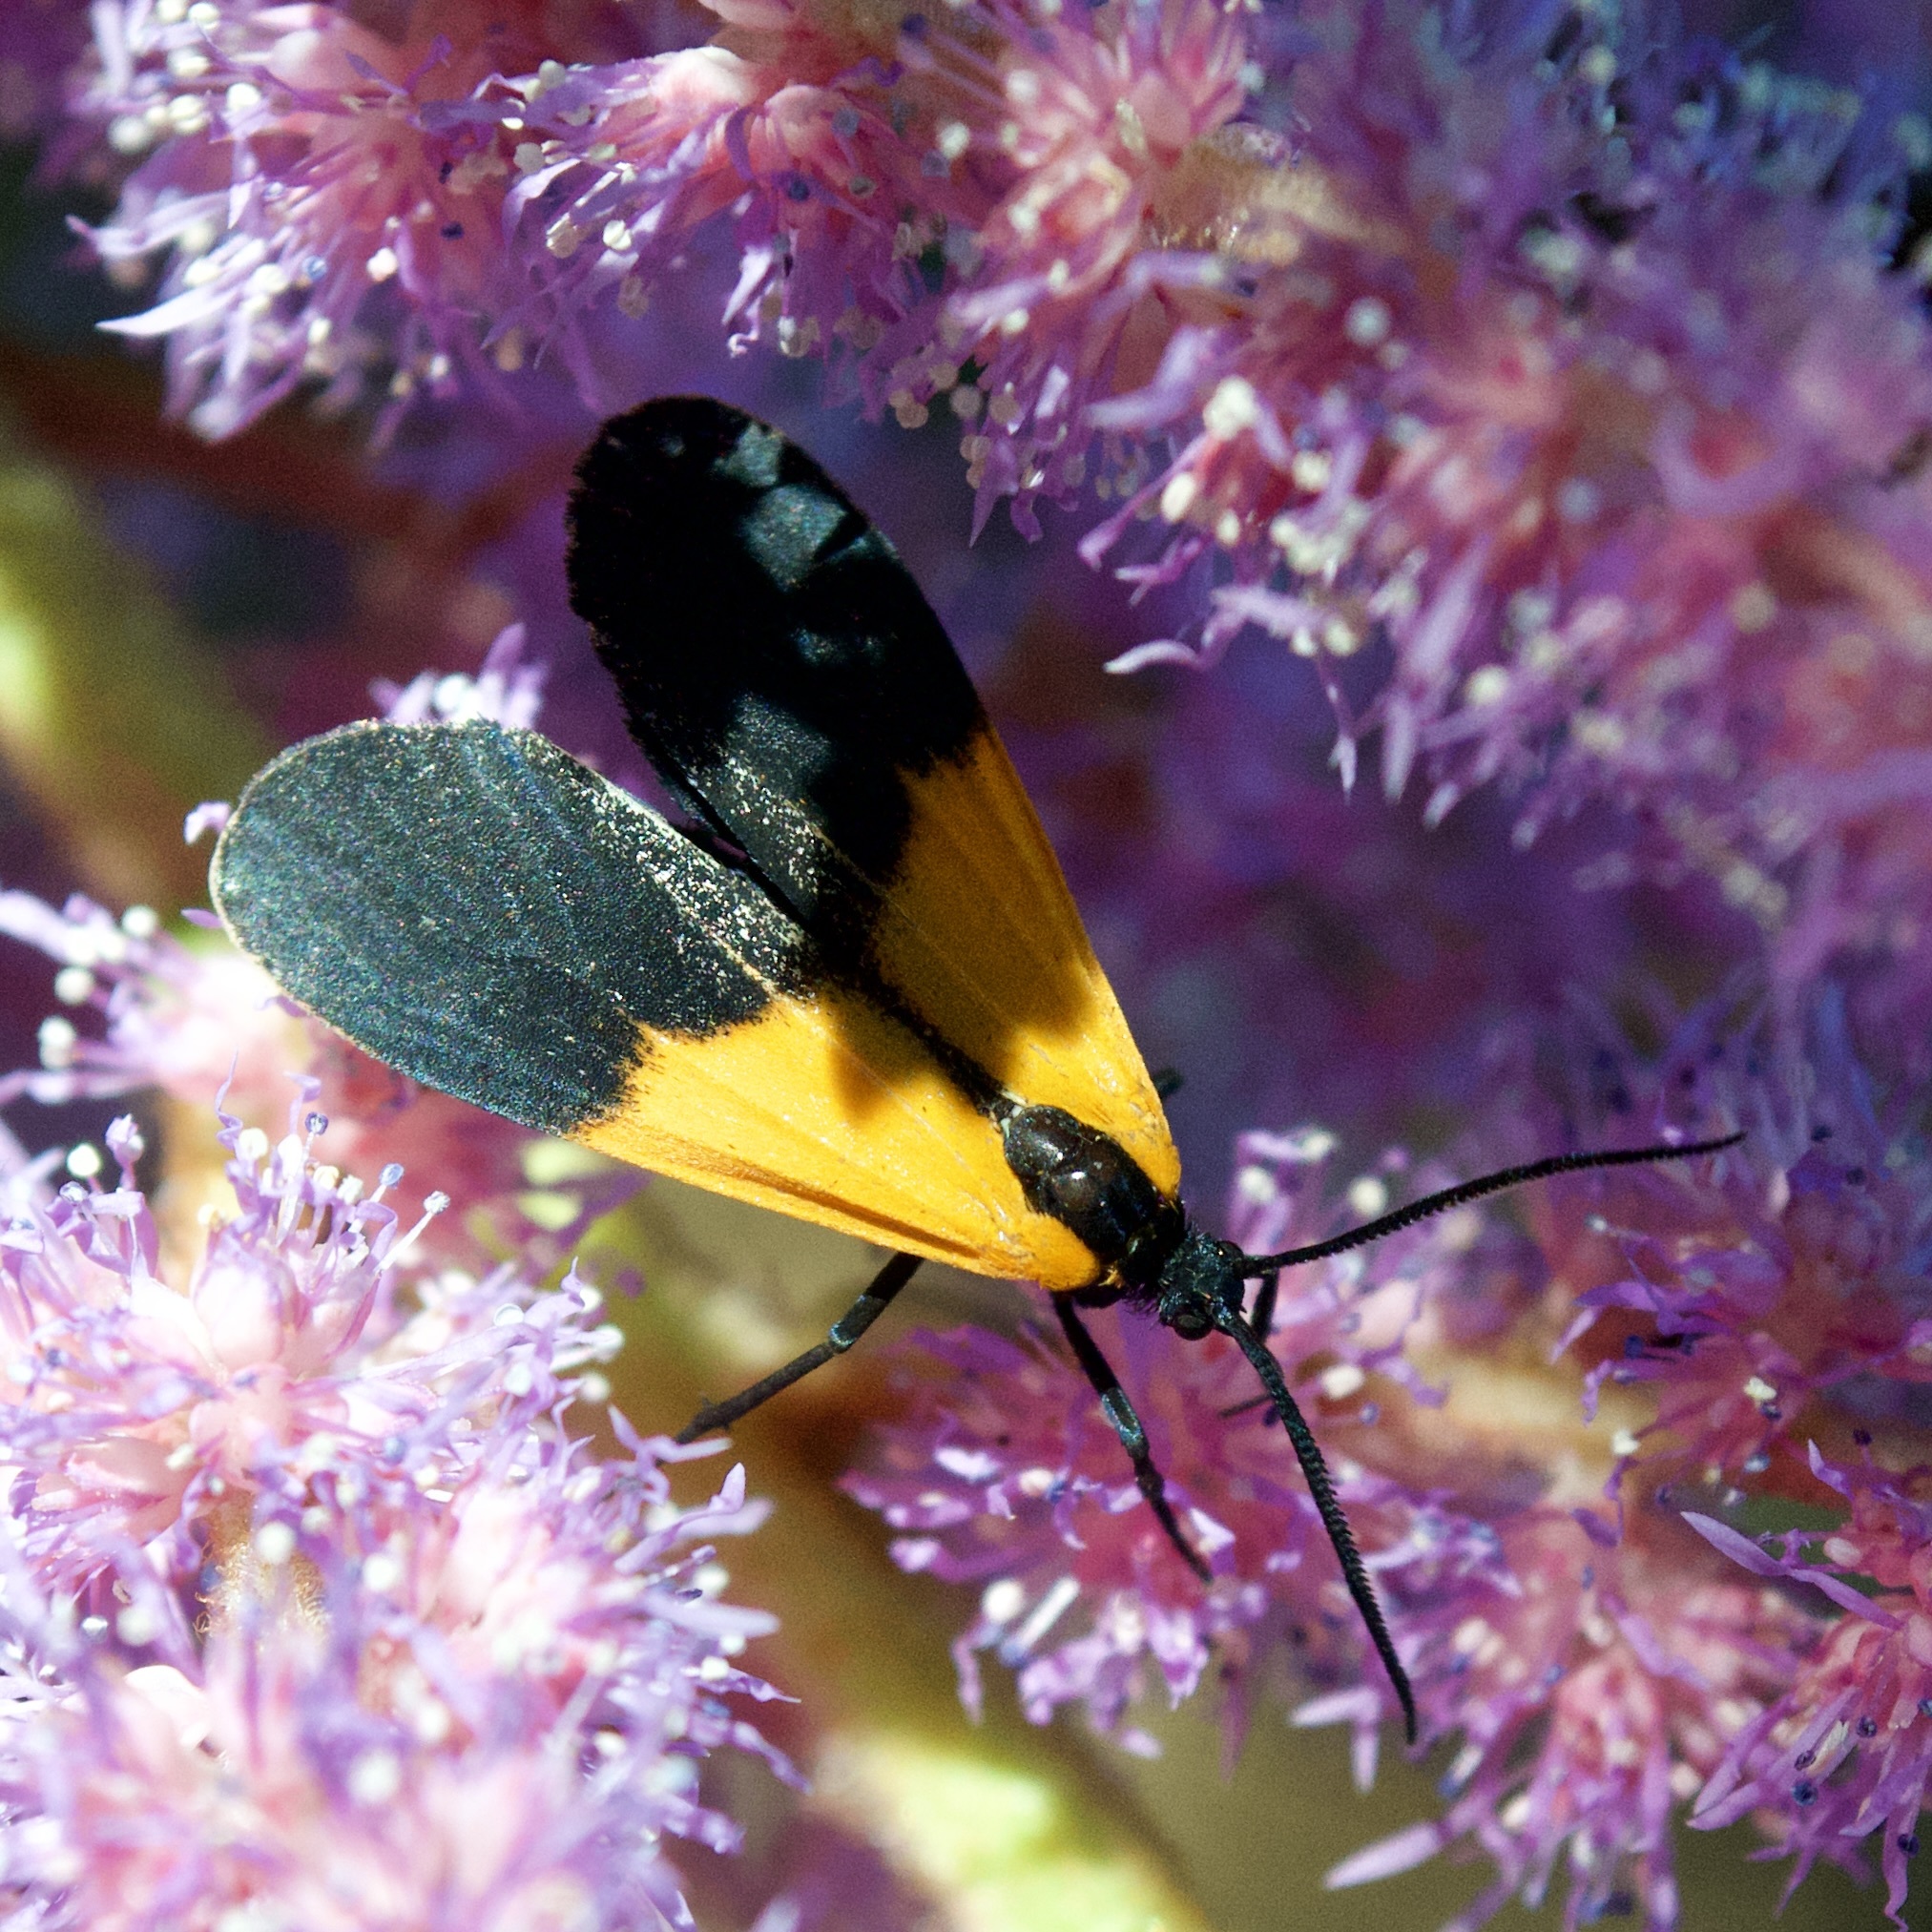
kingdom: Animalia
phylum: Arthropoda
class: Insecta
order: Lepidoptera
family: Erebidae
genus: Lycomorpha
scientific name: Lycomorpha pholus
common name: Black-and-yellow lichen moth
